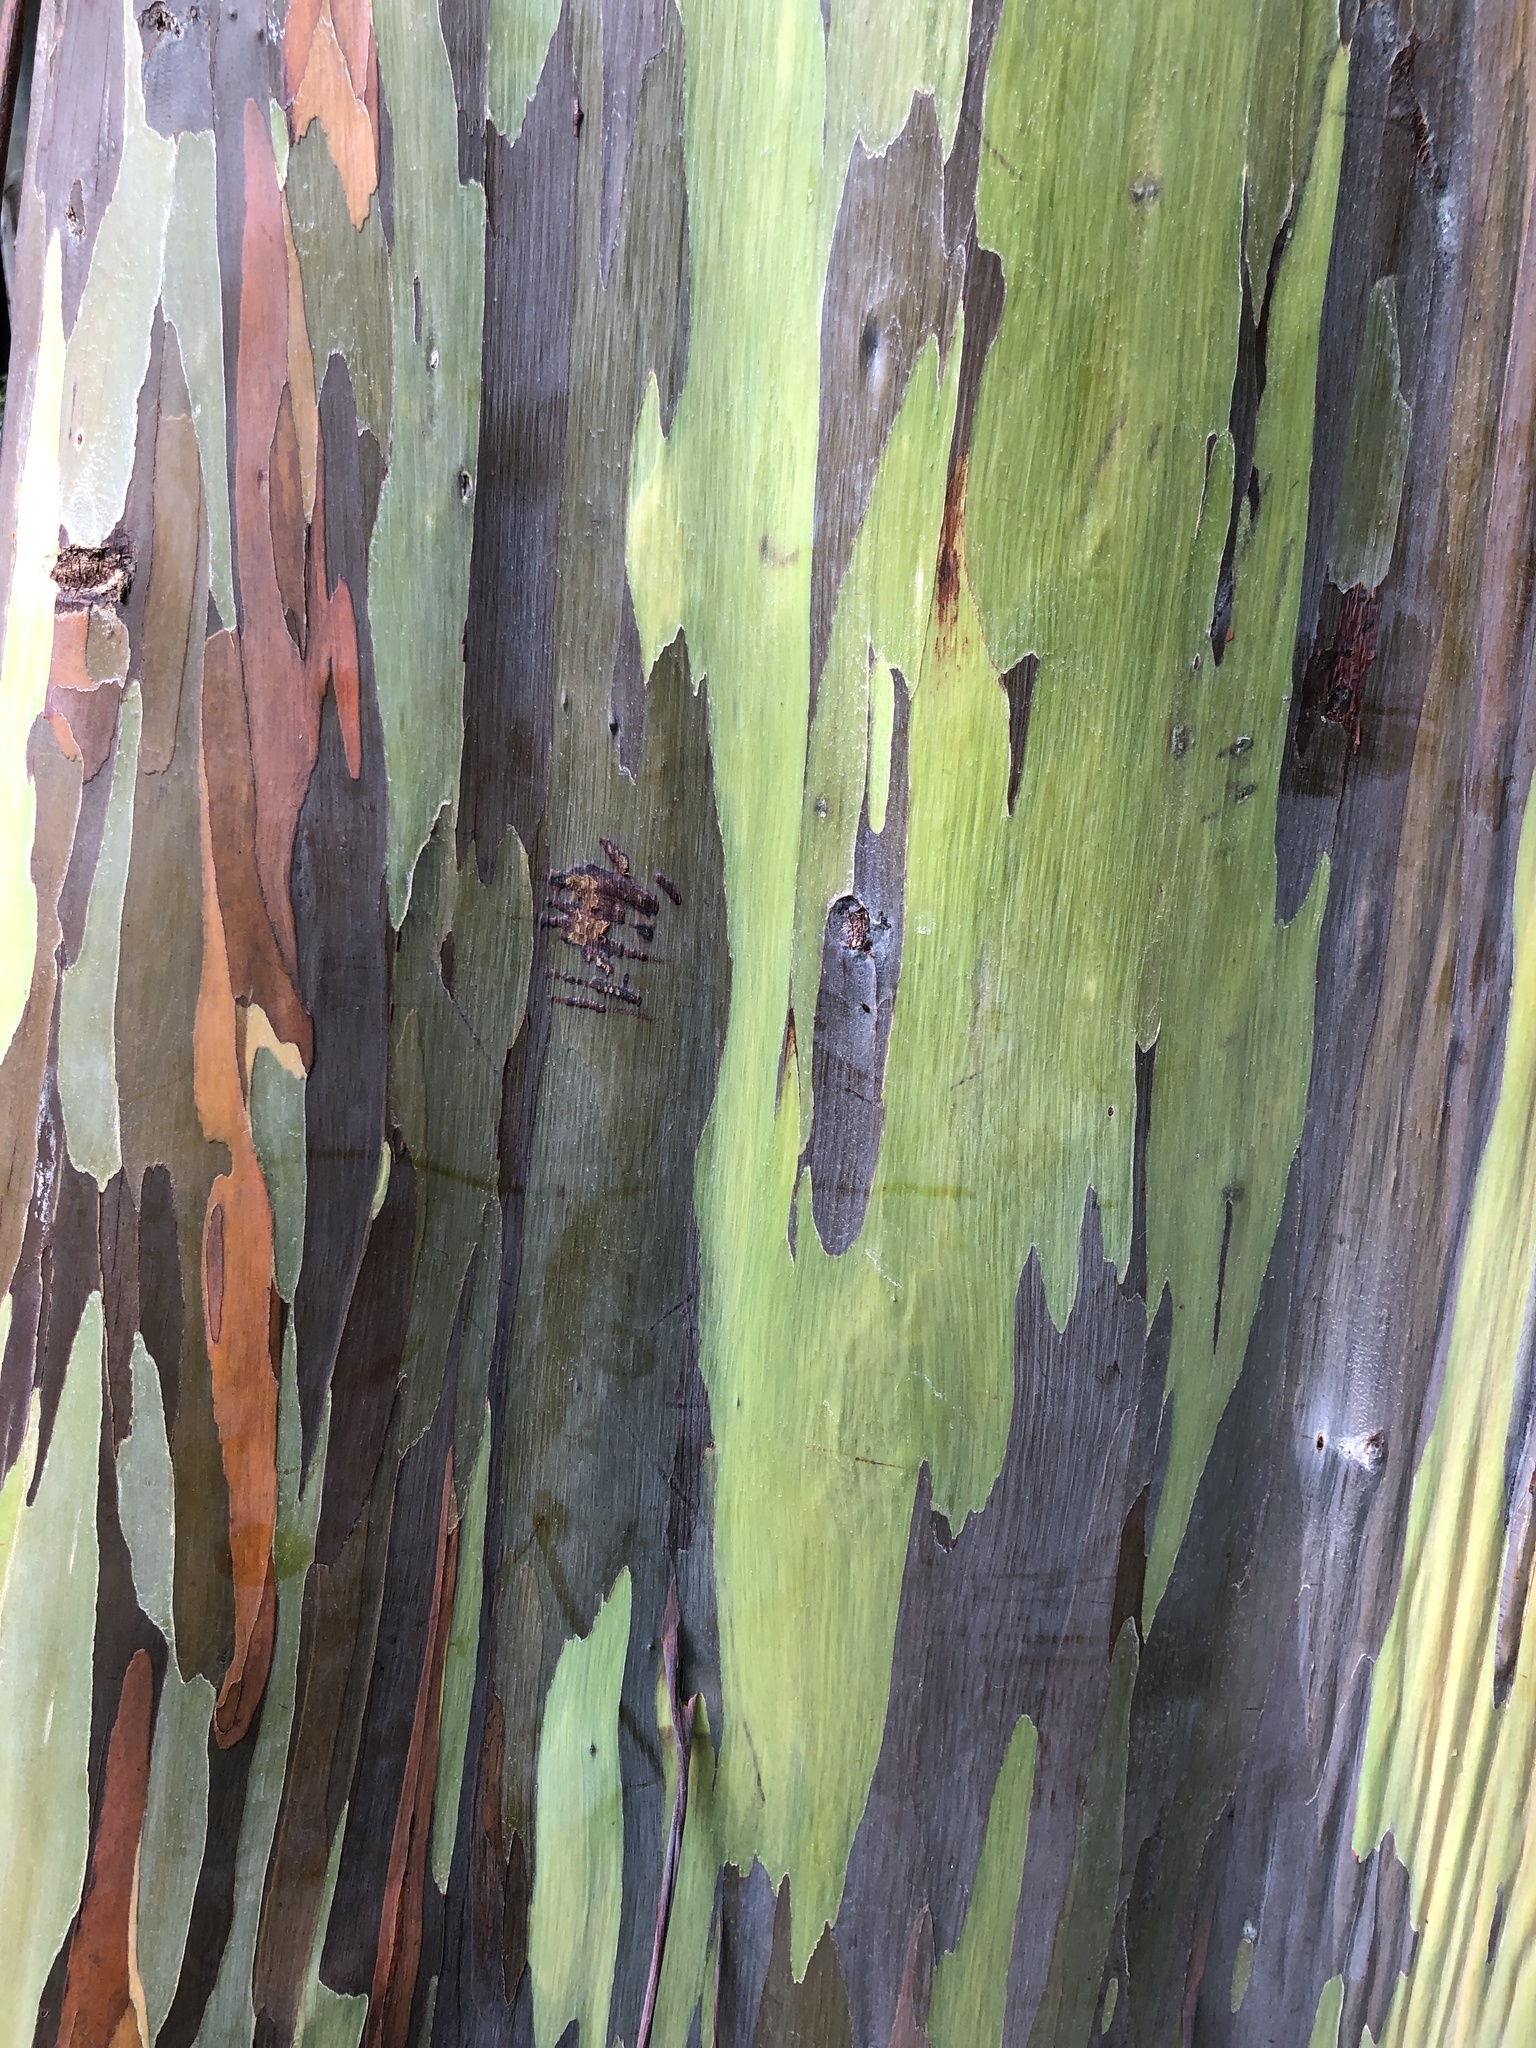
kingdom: Plantae
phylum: Tracheophyta
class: Magnoliopsida
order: Myrtales
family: Myrtaceae
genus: Eucalyptus
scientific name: Eucalyptus deglupta
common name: Mindanao gum
